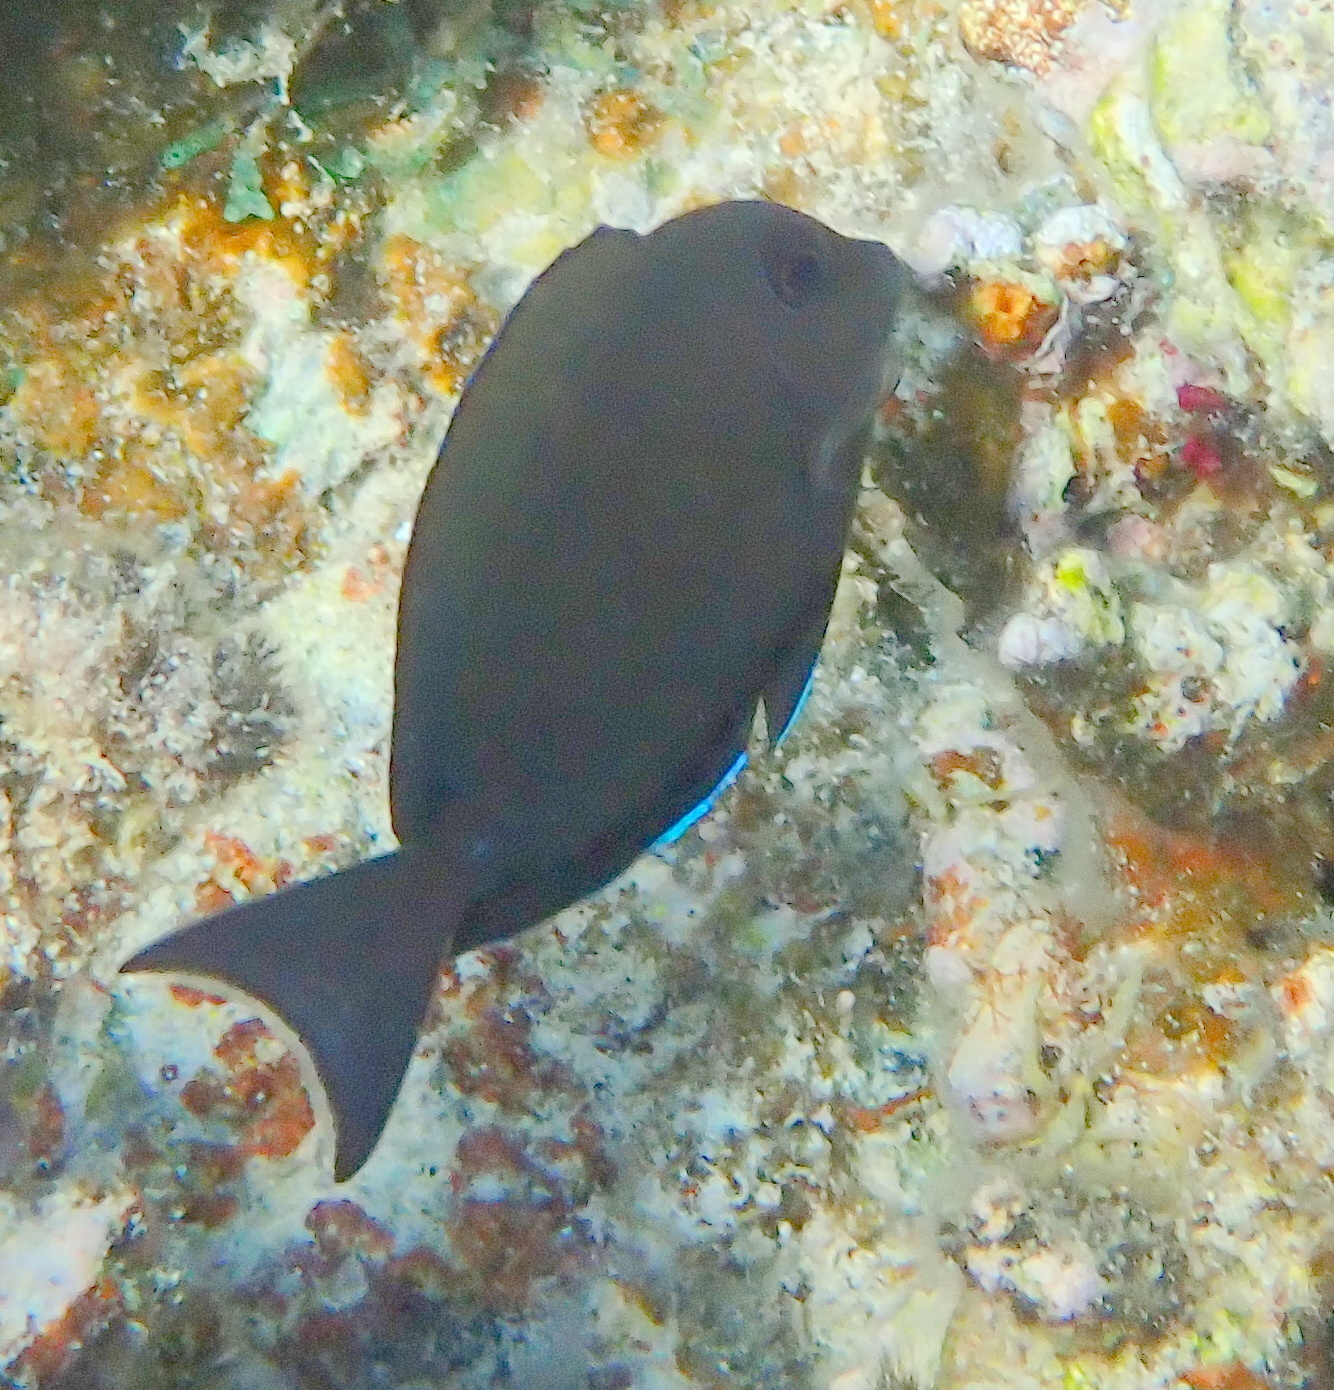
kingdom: Animalia
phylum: Chordata
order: Perciformes
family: Acanthuridae
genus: Acanthurus
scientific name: Acanthurus nigrofuscus
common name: Blackspot surgeonfish
